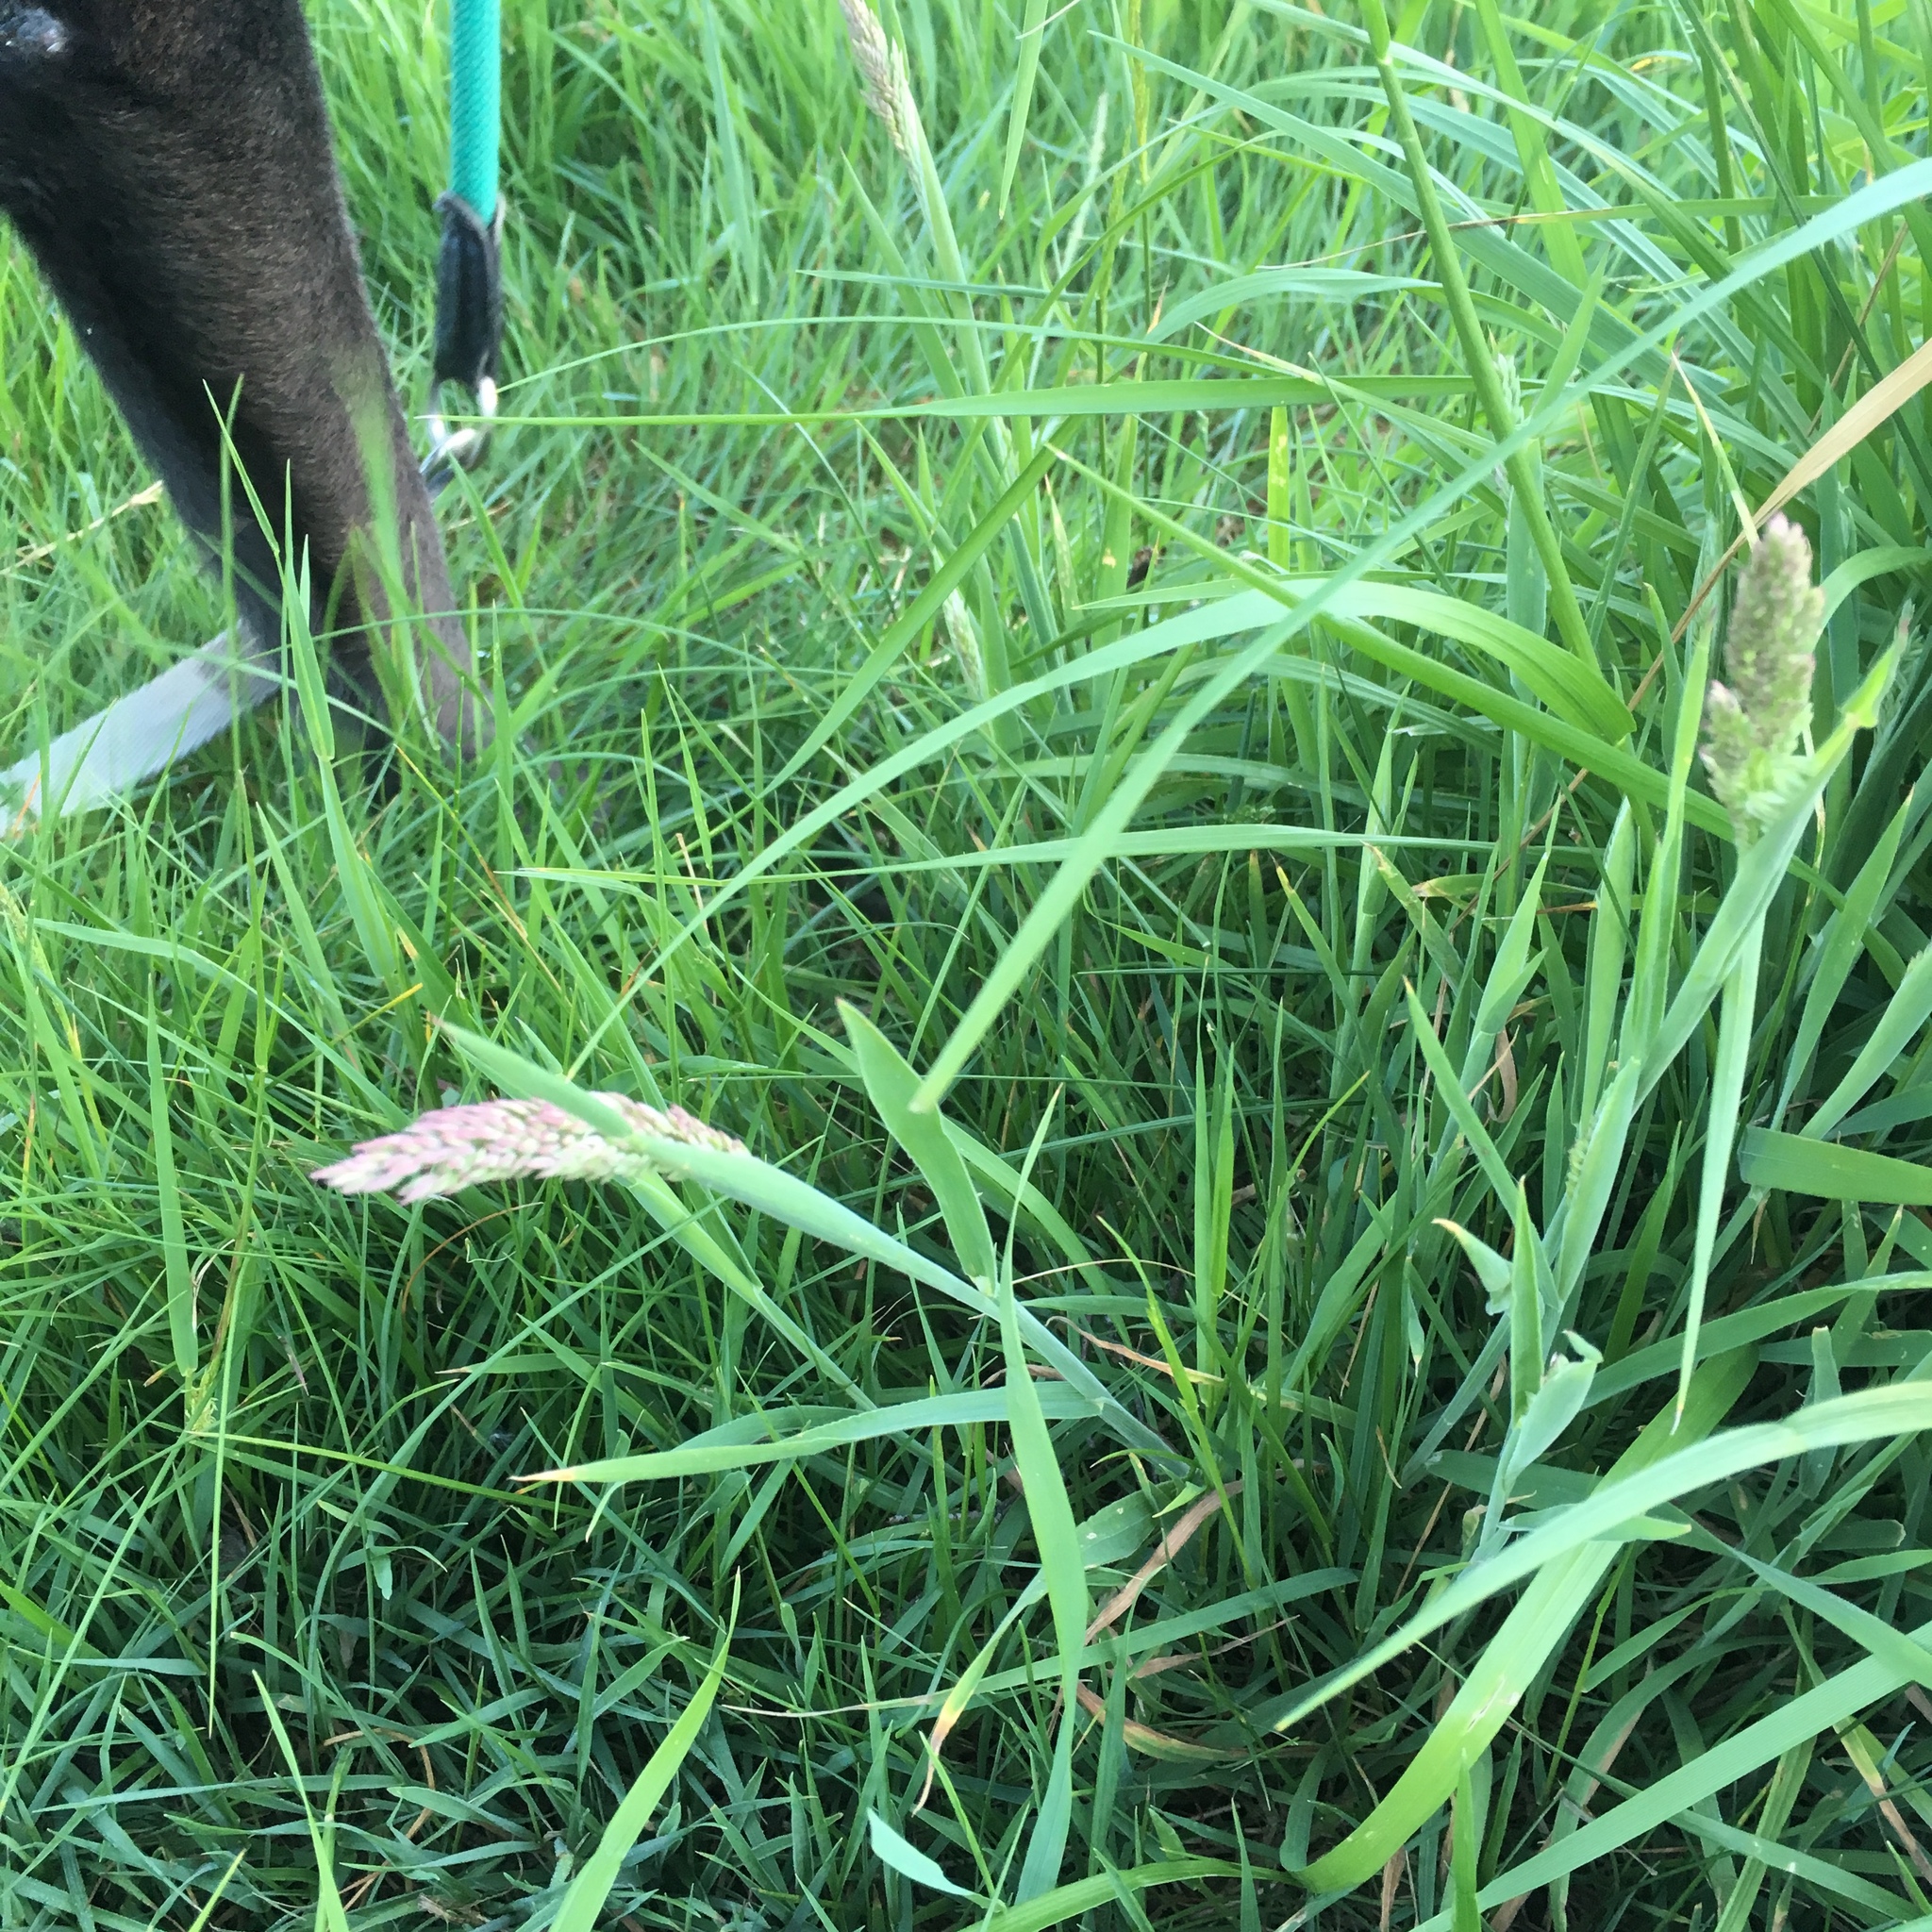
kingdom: Plantae
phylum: Tracheophyta
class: Liliopsida
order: Poales
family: Poaceae
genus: Holcus
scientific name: Holcus lanatus
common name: Yorkshire-fog
